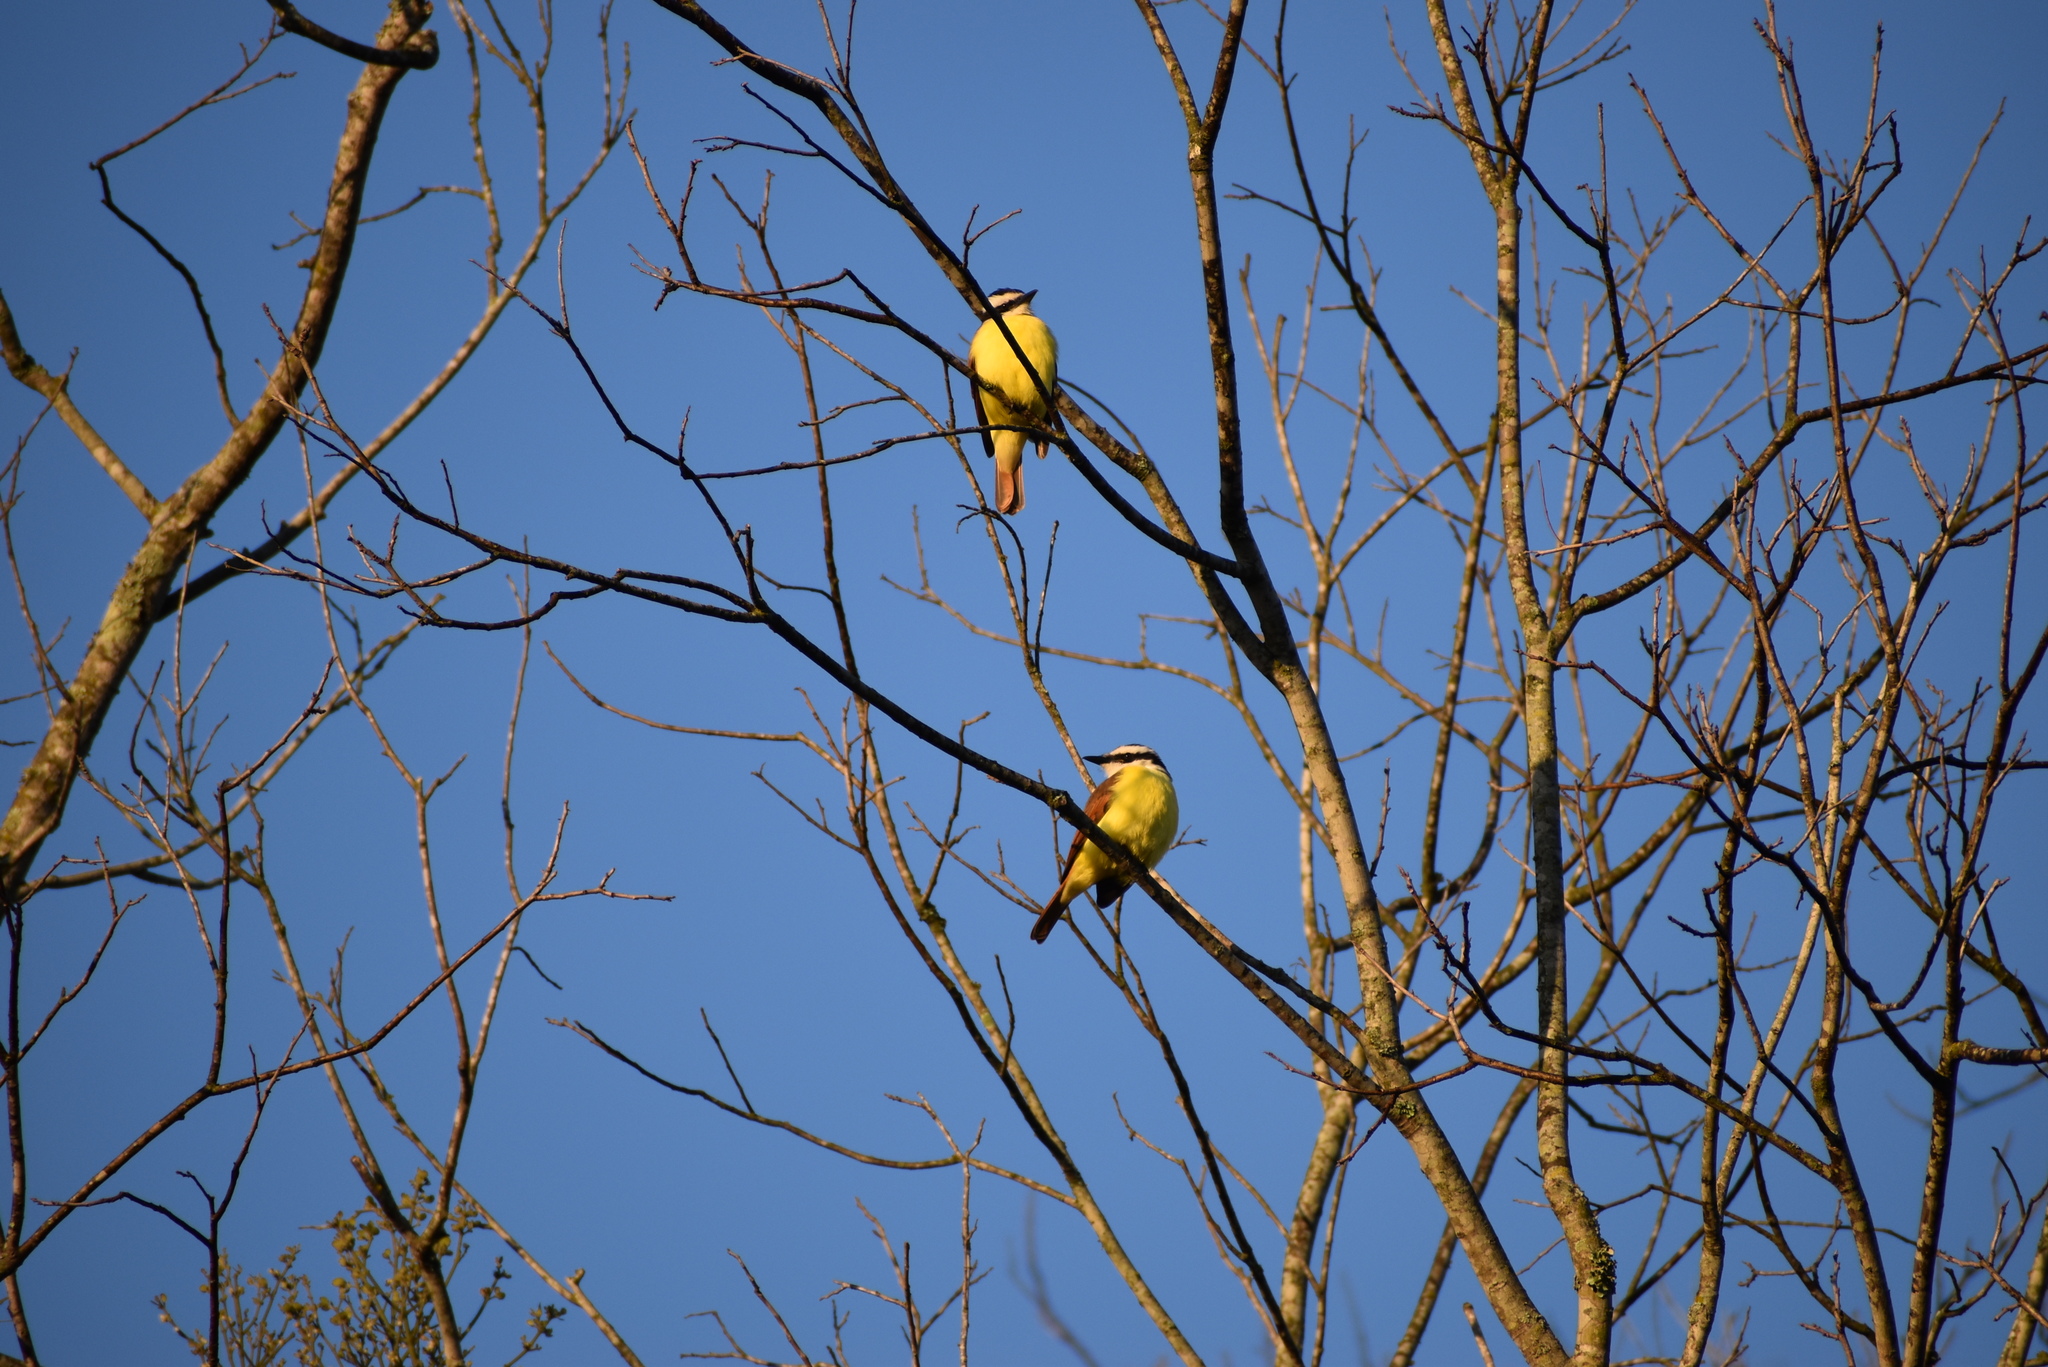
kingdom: Animalia
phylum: Chordata
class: Aves
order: Passeriformes
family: Tyrannidae
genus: Pitangus
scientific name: Pitangus sulphuratus
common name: Great kiskadee
